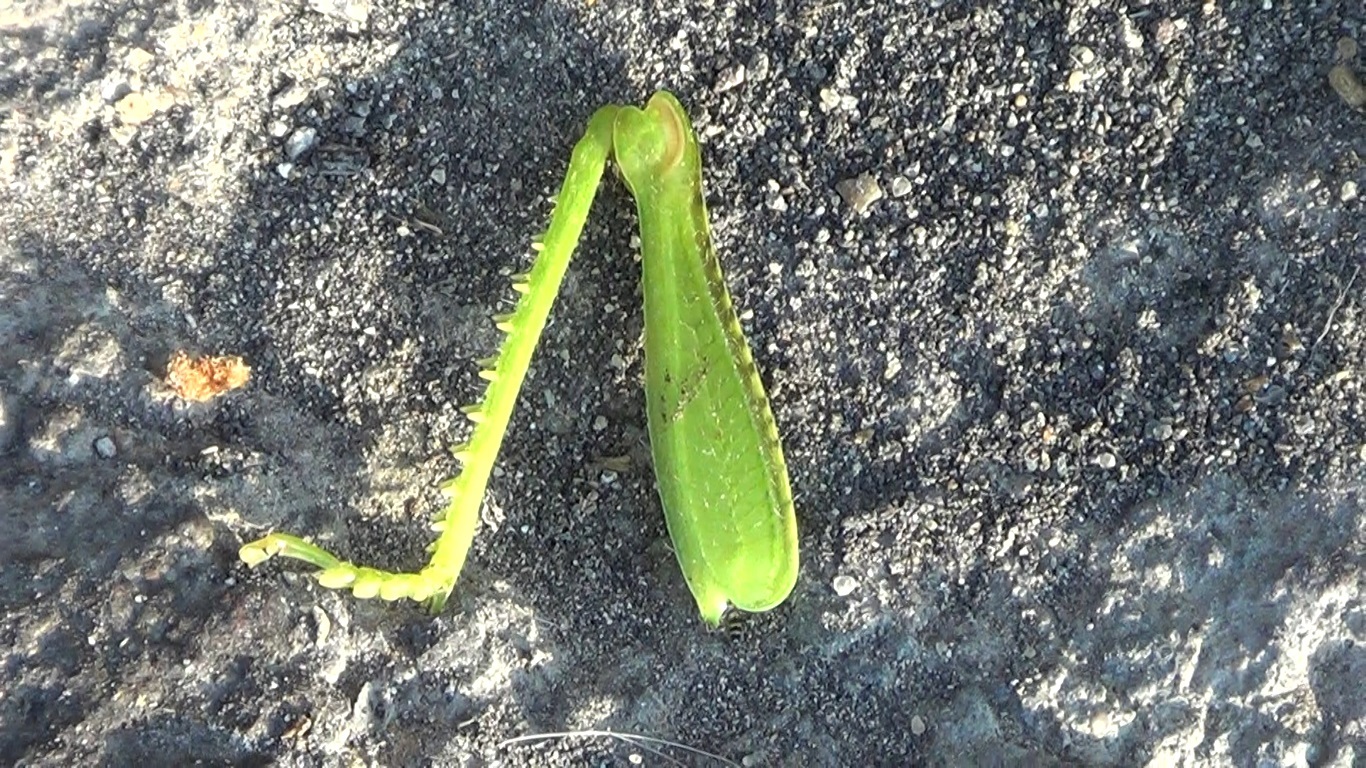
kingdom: Animalia
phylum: Arthropoda
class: Insecta
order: Orthoptera
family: Acrididae
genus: Anacridium
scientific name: Anacridium aegyptium
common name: Egyptian grasshopper
